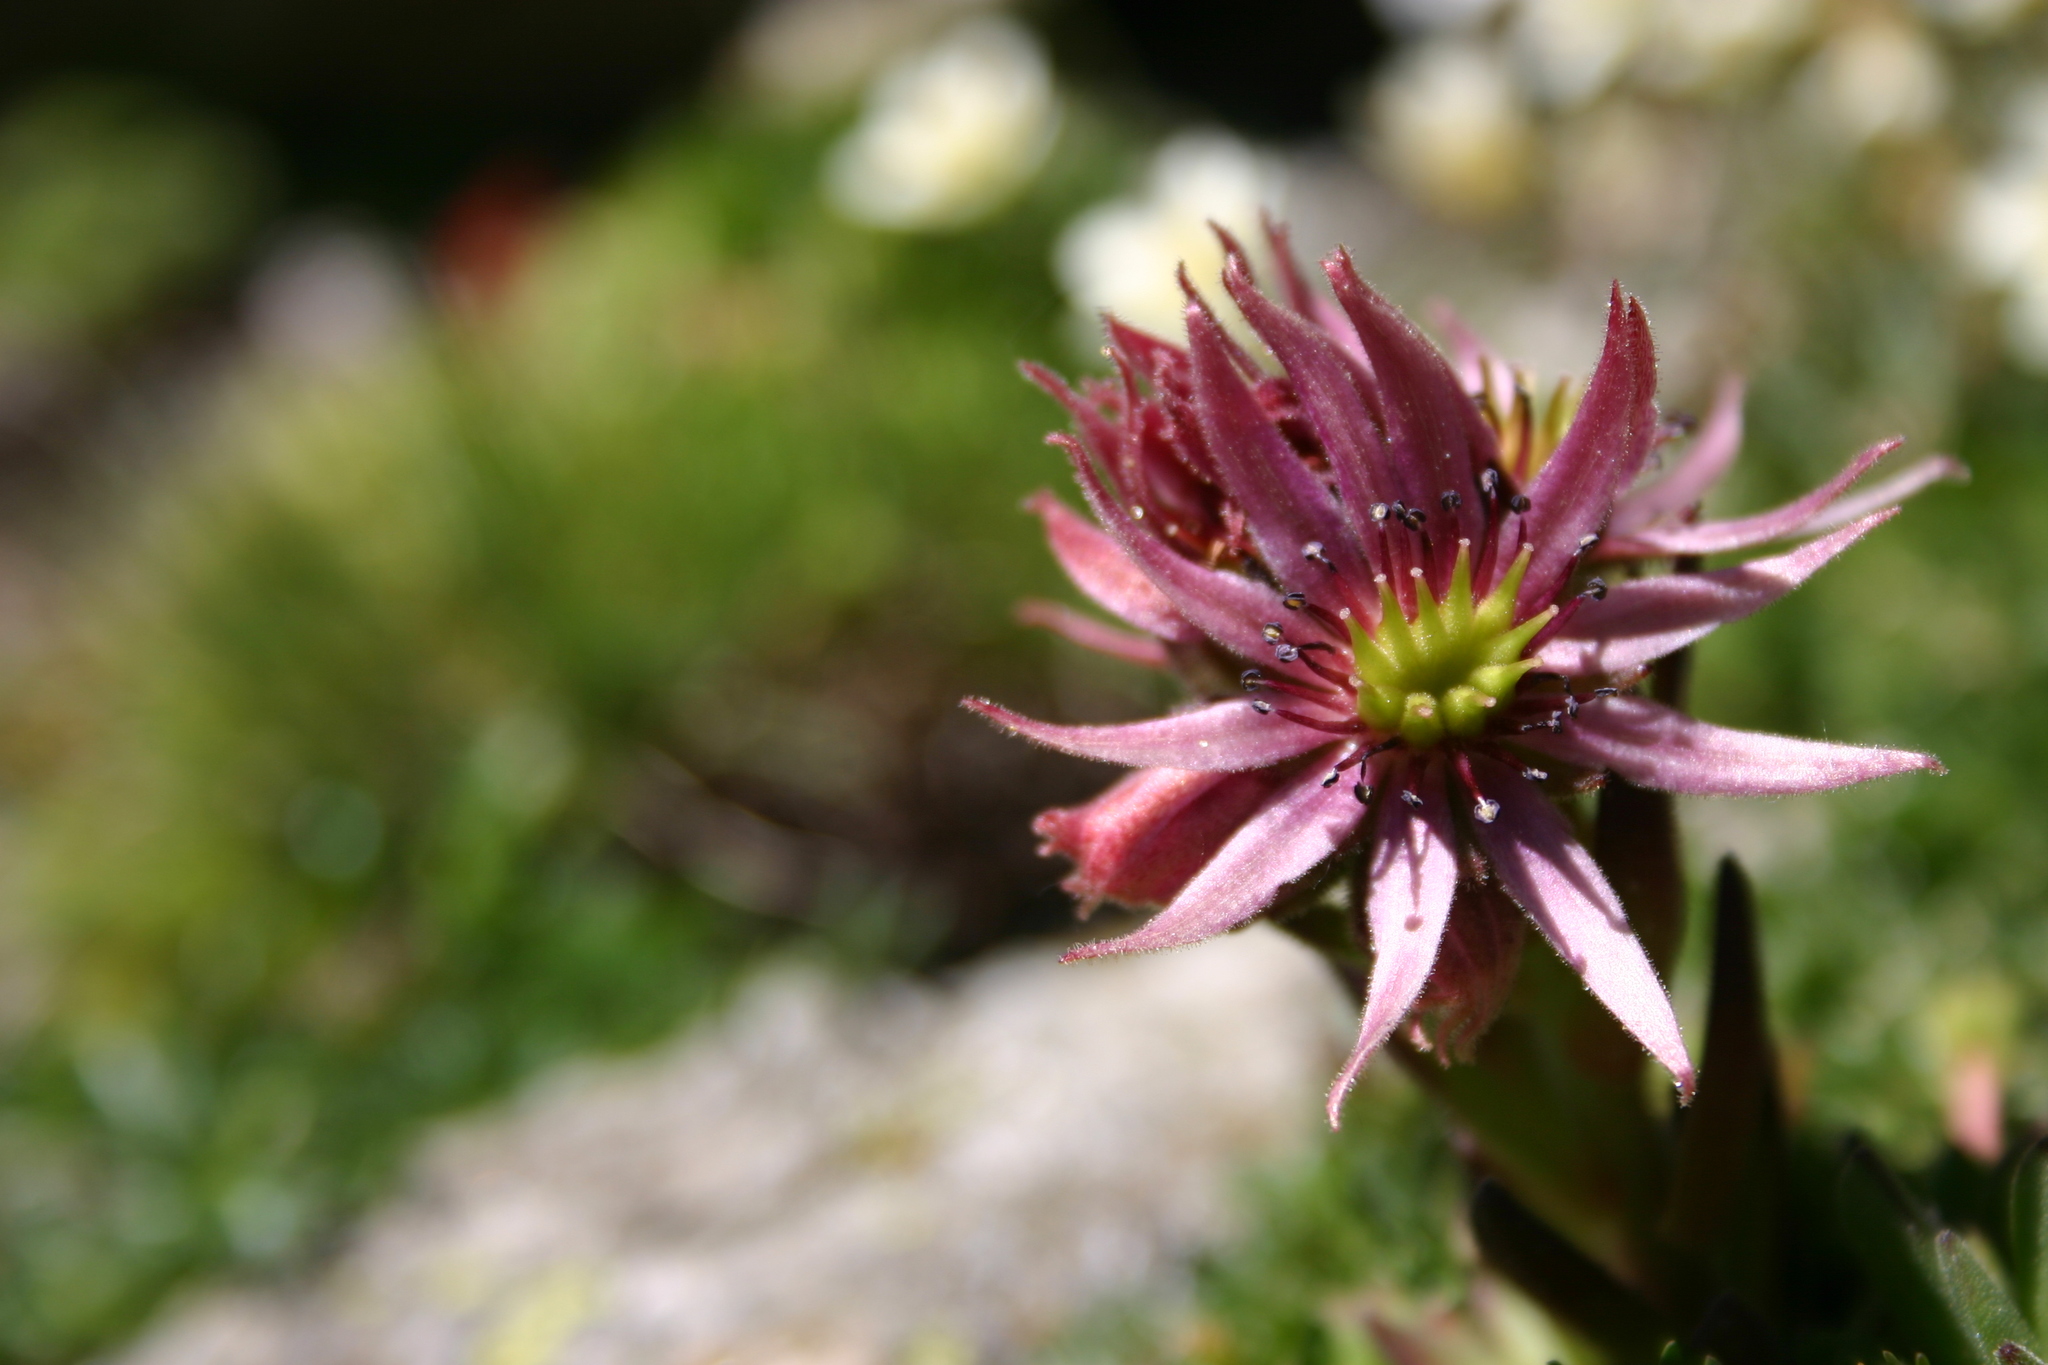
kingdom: Plantae
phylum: Tracheophyta
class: Magnoliopsida
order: Saxifragales
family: Crassulaceae
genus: Sempervivum
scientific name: Sempervivum montanum
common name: Mountain house-leek
